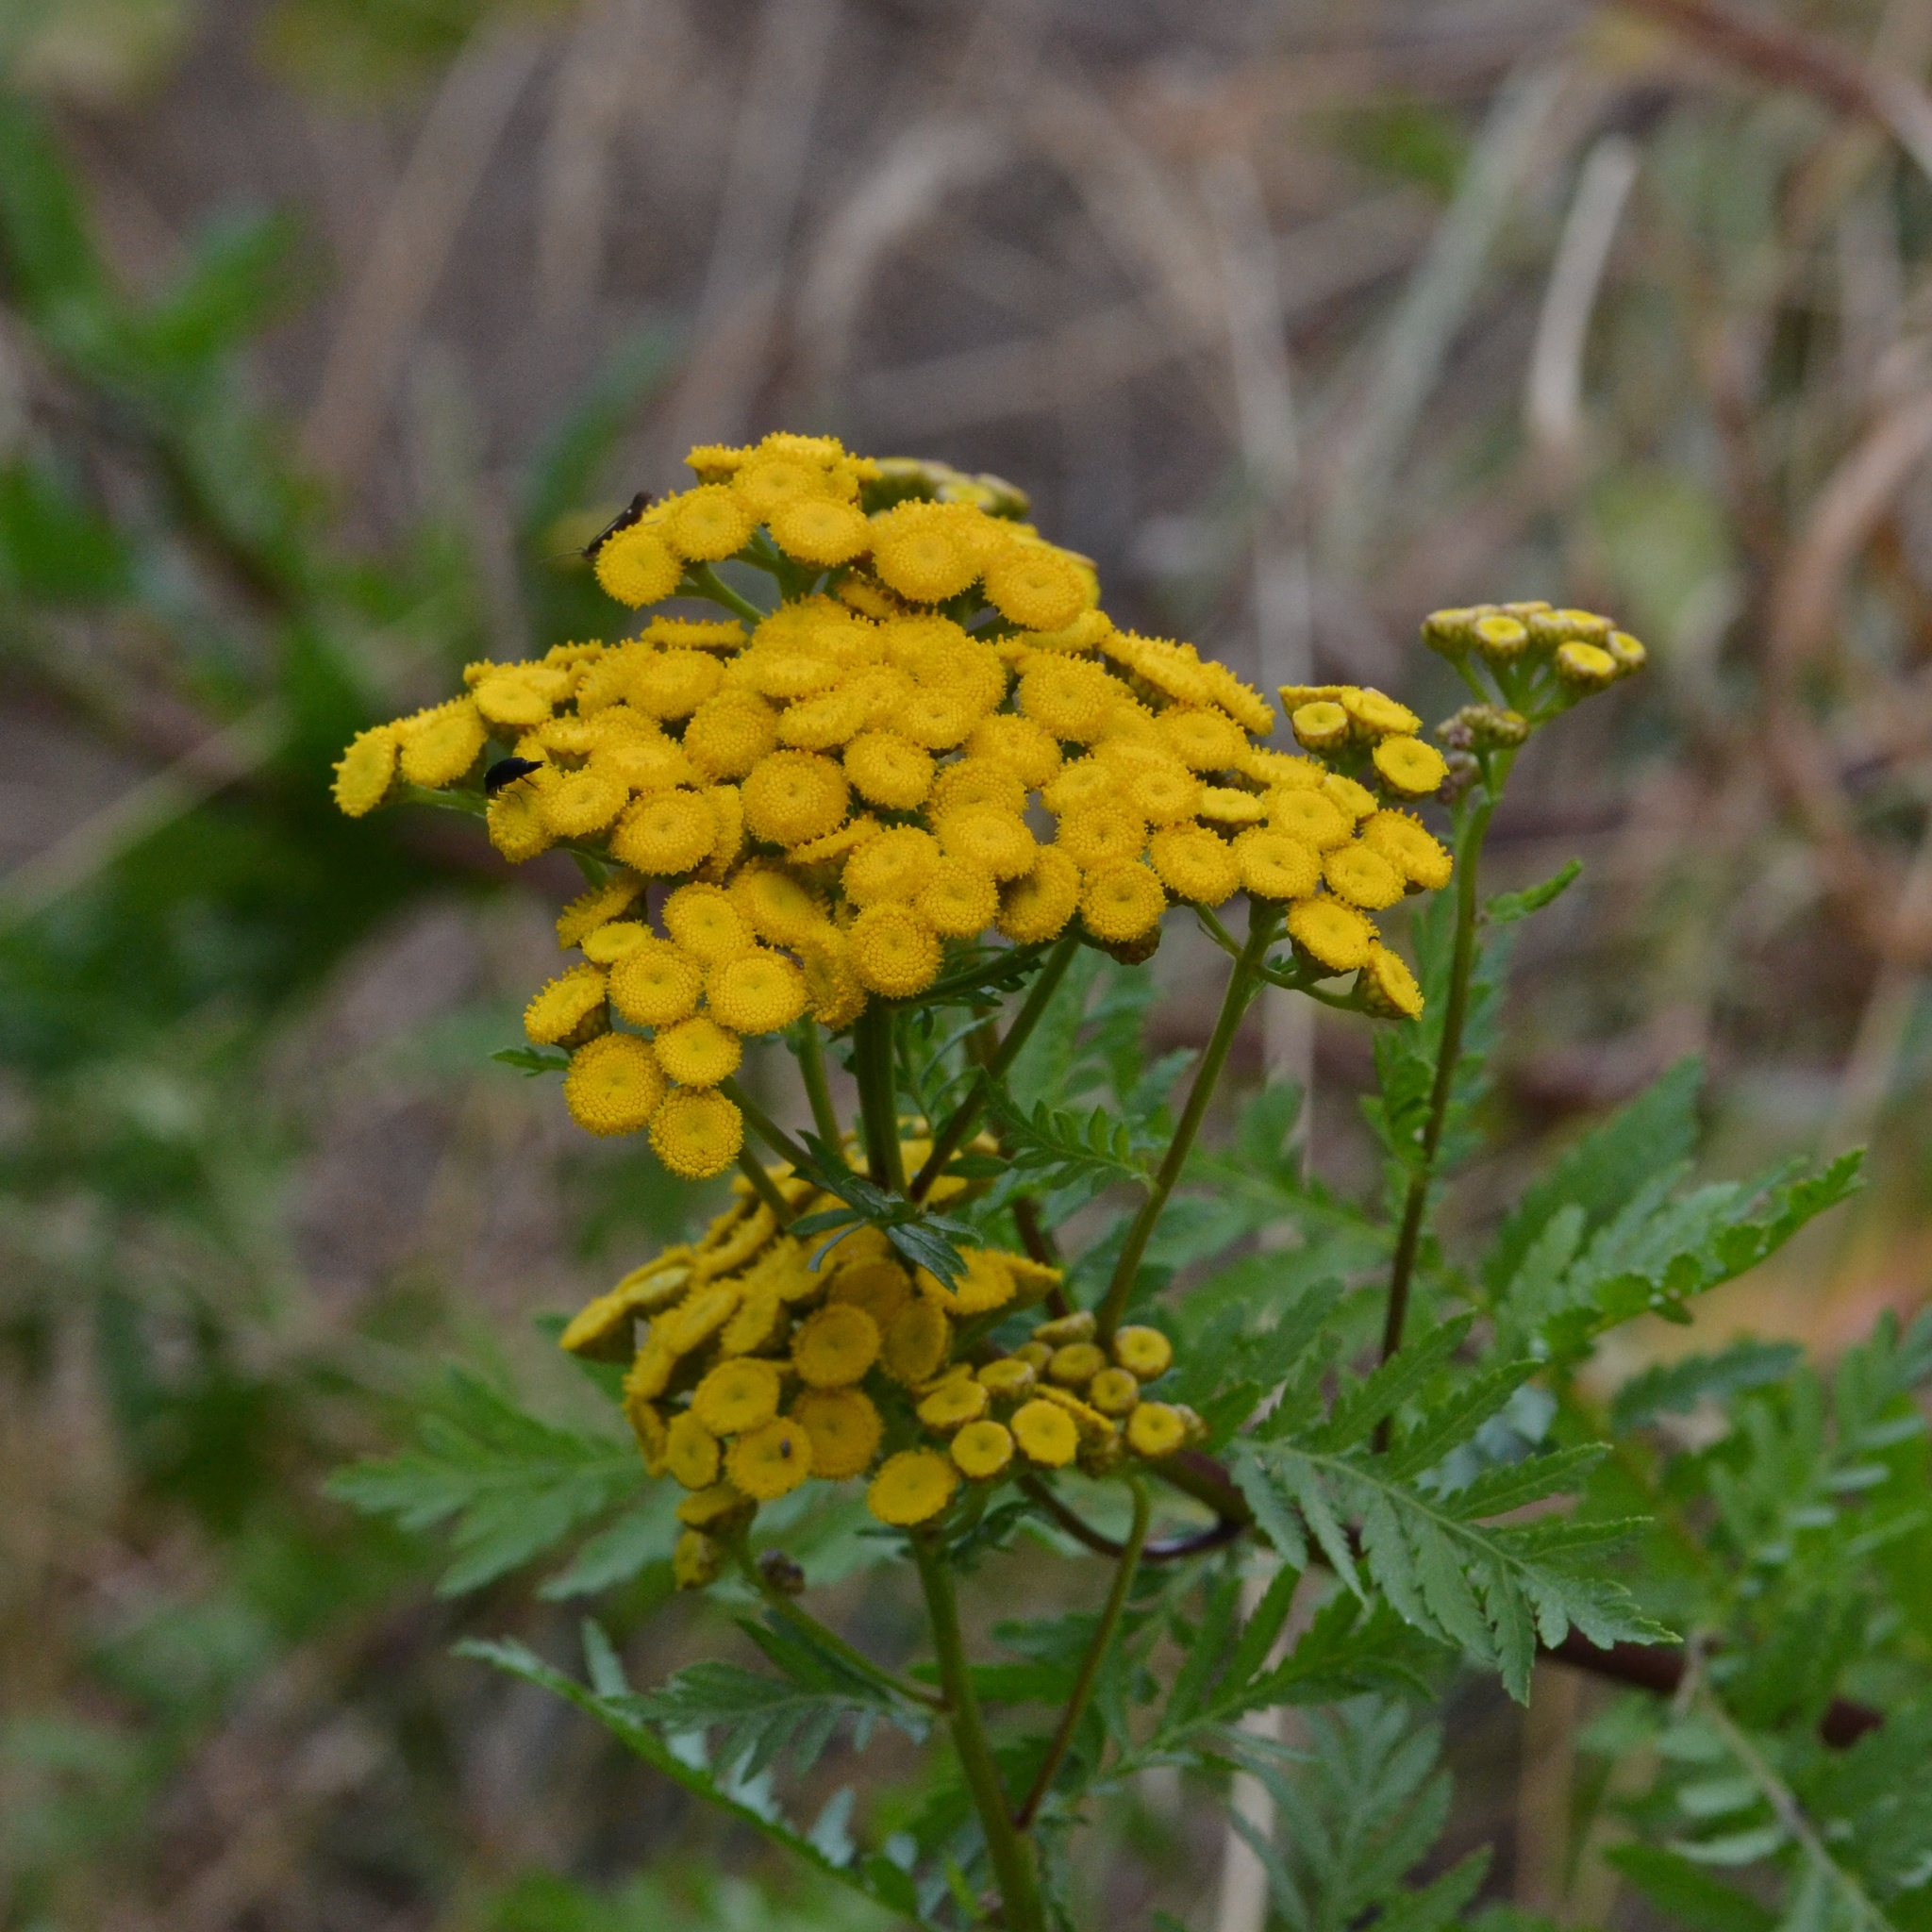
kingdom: Plantae
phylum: Tracheophyta
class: Magnoliopsida
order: Asterales
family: Asteraceae
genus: Tanacetum
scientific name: Tanacetum vulgare
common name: Common tansy
